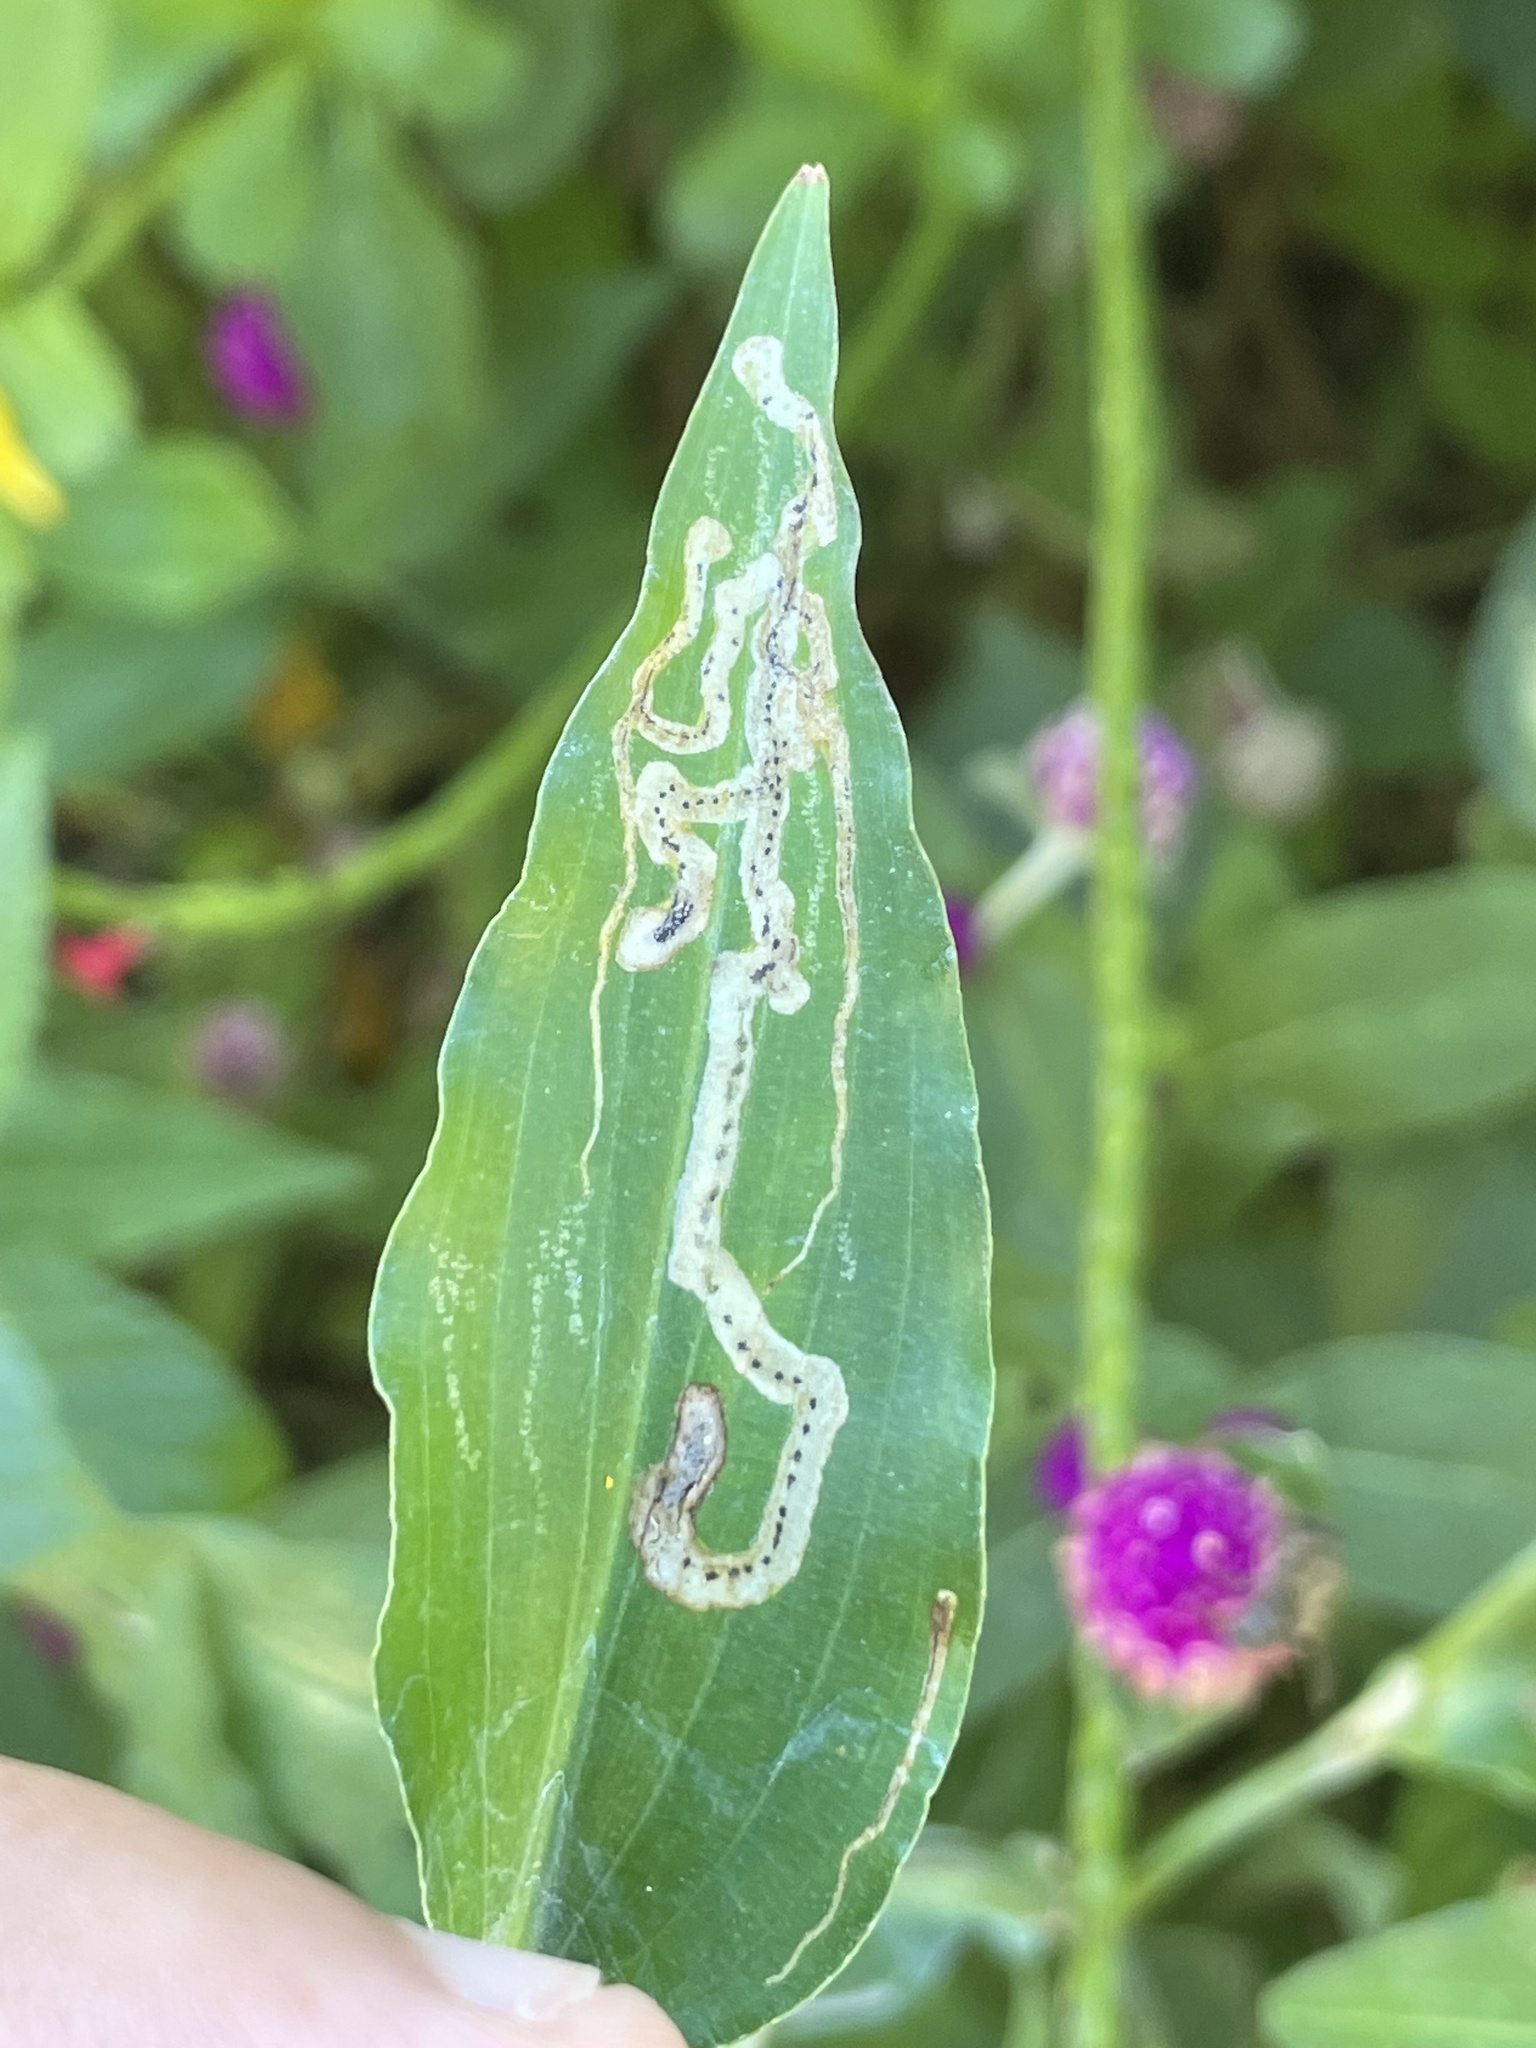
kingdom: Animalia
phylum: Arthropoda
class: Insecta
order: Diptera
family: Agromyzidae
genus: Liriomyza
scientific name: Liriomyza commelinae
